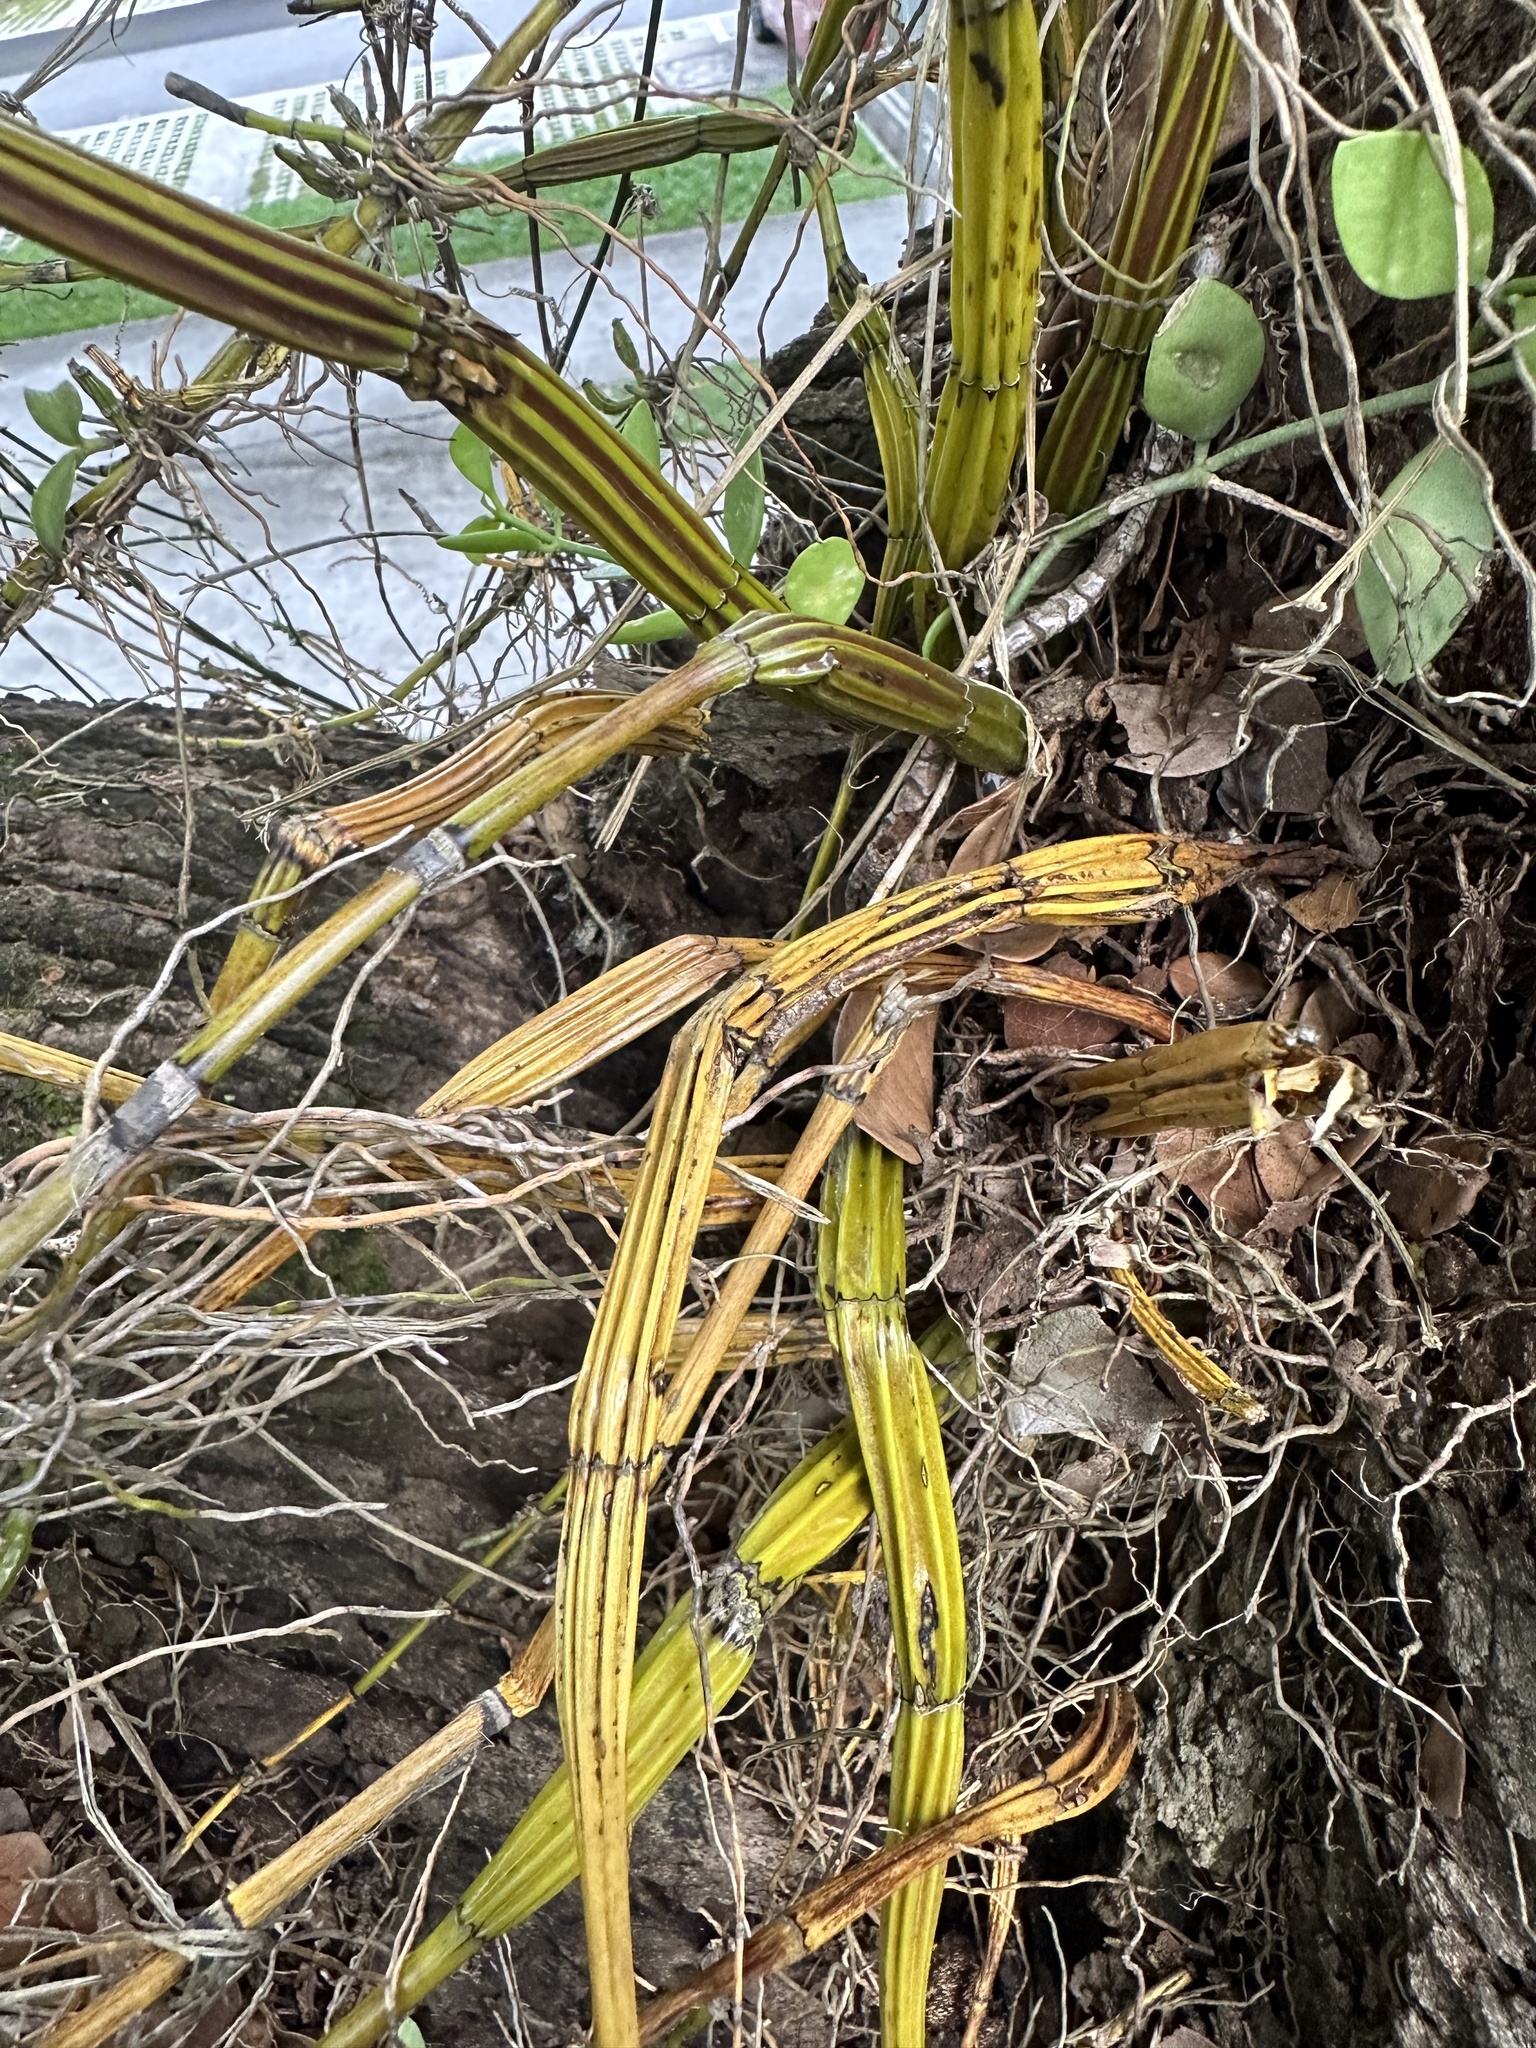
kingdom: Plantae
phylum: Tracheophyta
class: Liliopsida
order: Asparagales
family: Orchidaceae
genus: Dendrobium
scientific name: Dendrobium crumenatum
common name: Orchid
